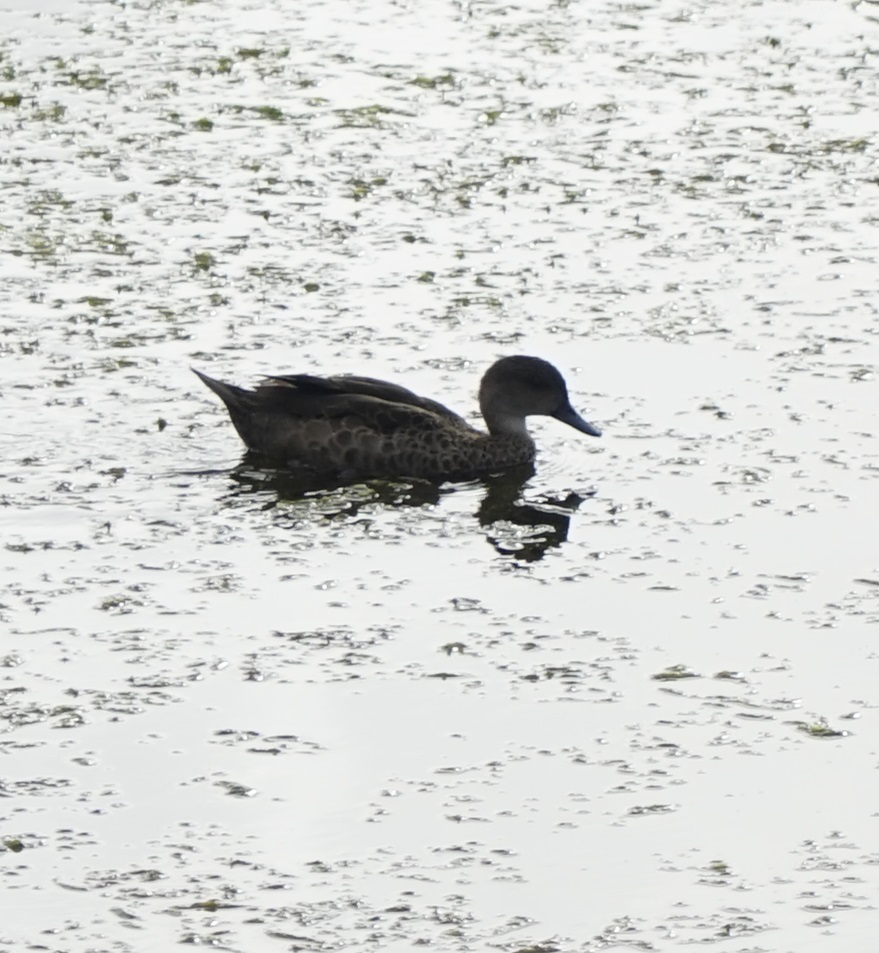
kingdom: Animalia
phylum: Chordata
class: Aves
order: Anseriformes
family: Anatidae
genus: Anas
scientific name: Anas gracilis
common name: Grey teal
